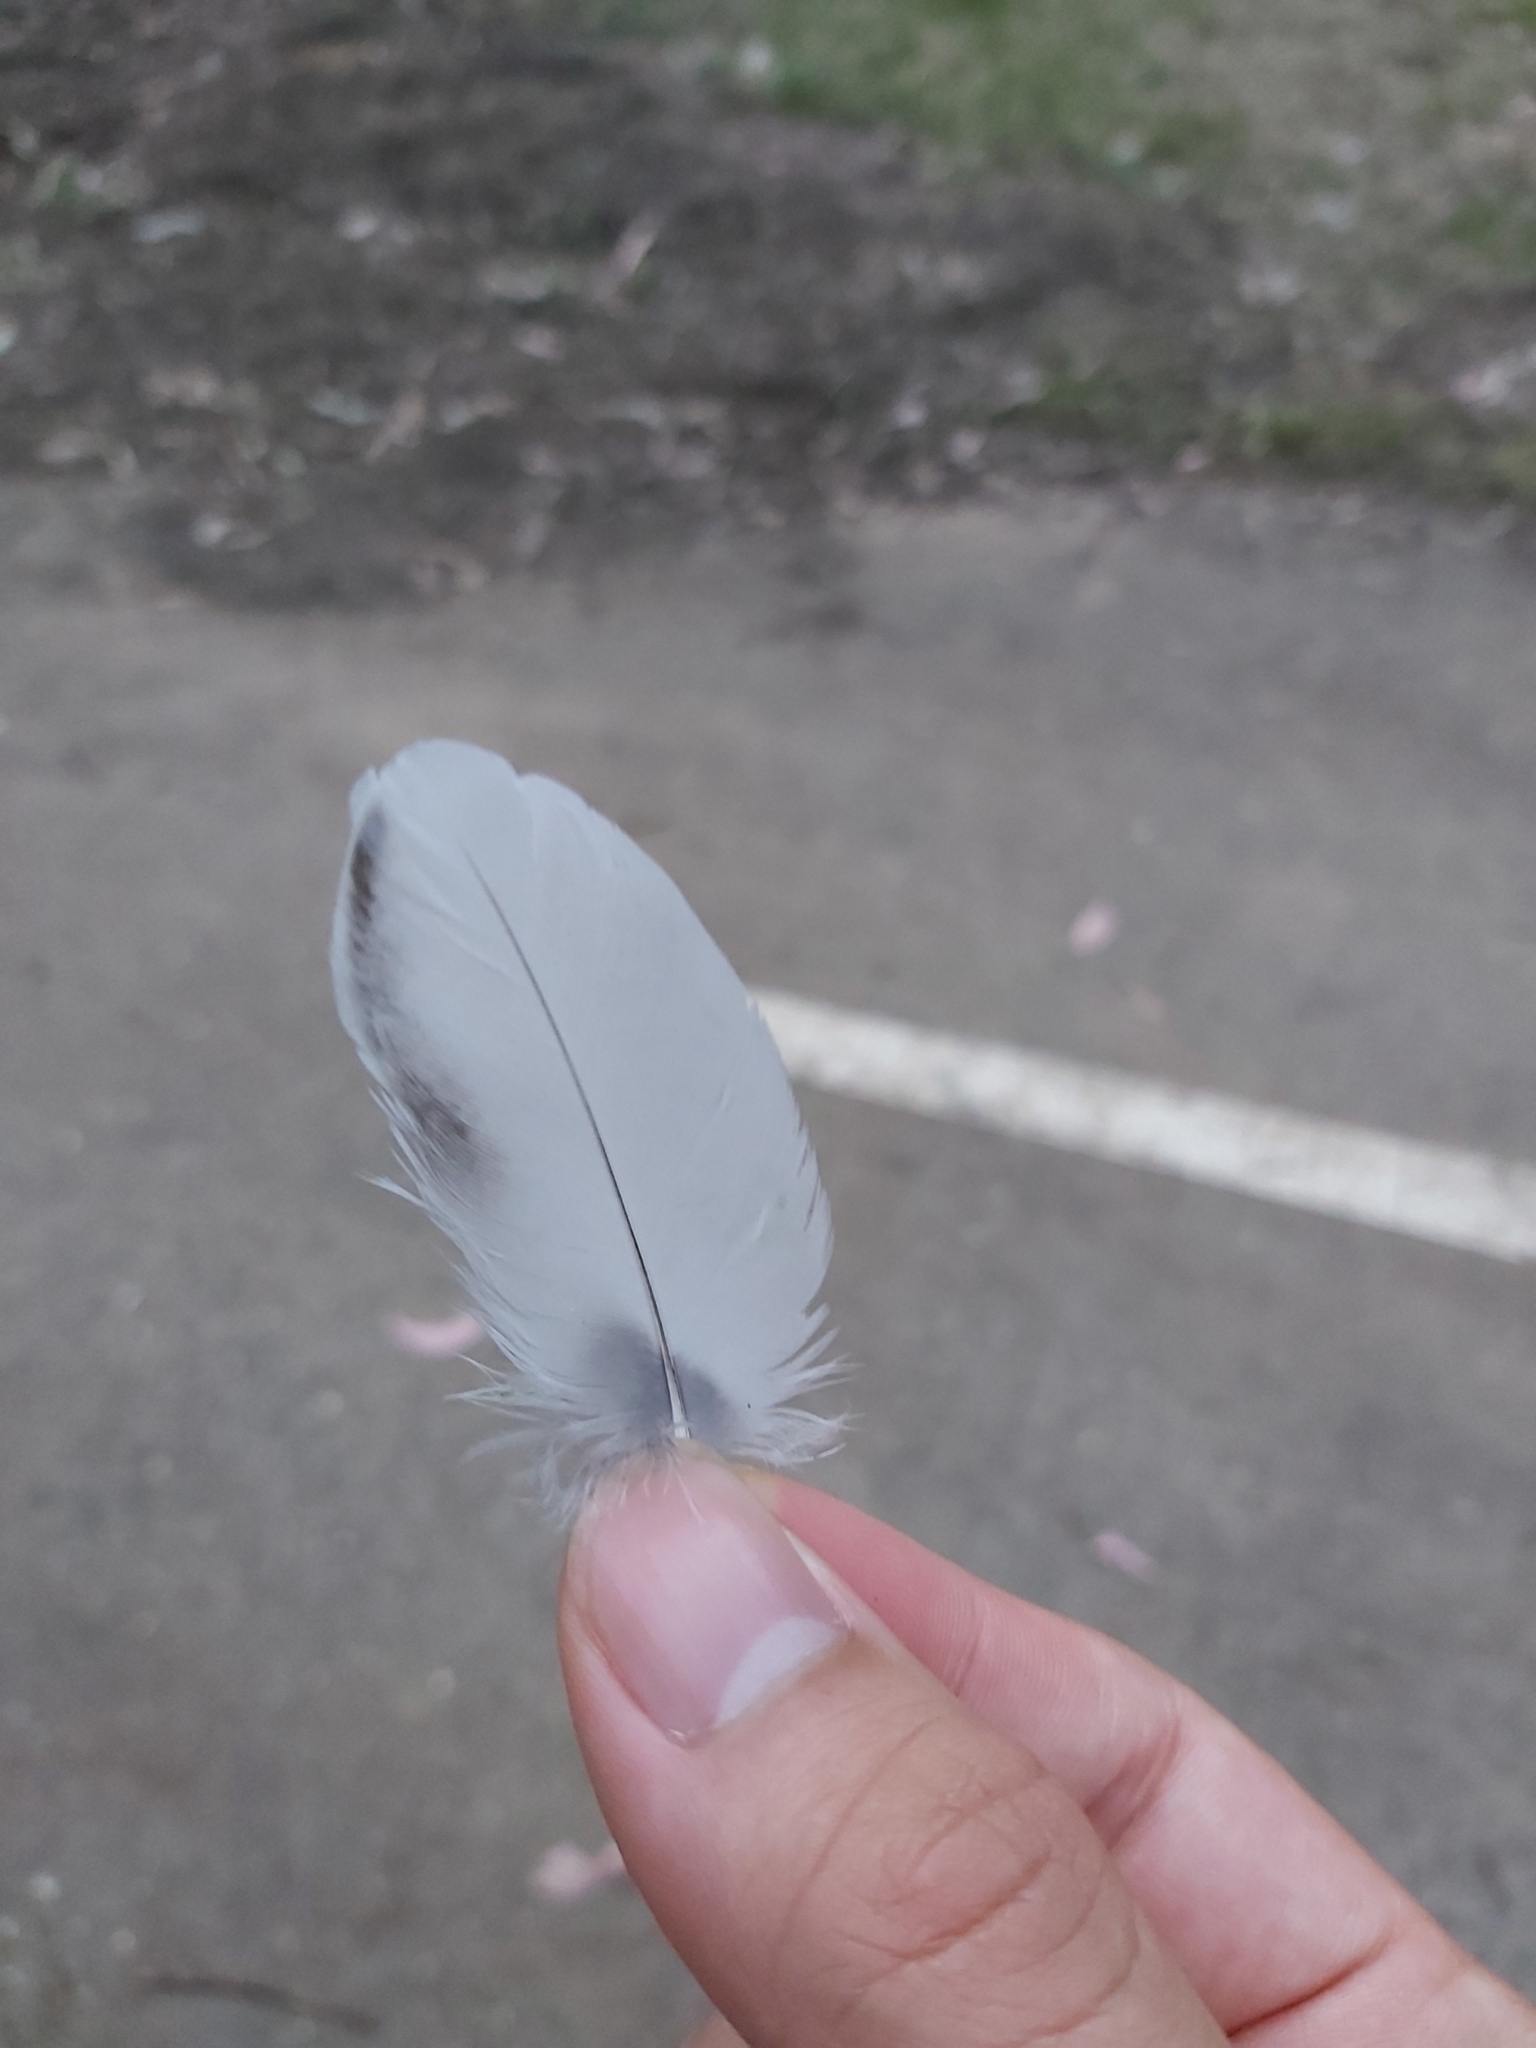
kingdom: Animalia
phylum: Chordata
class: Aves
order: Passeriformes
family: Cracticidae
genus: Gymnorhina
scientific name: Gymnorhina tibicen
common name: Australian magpie
